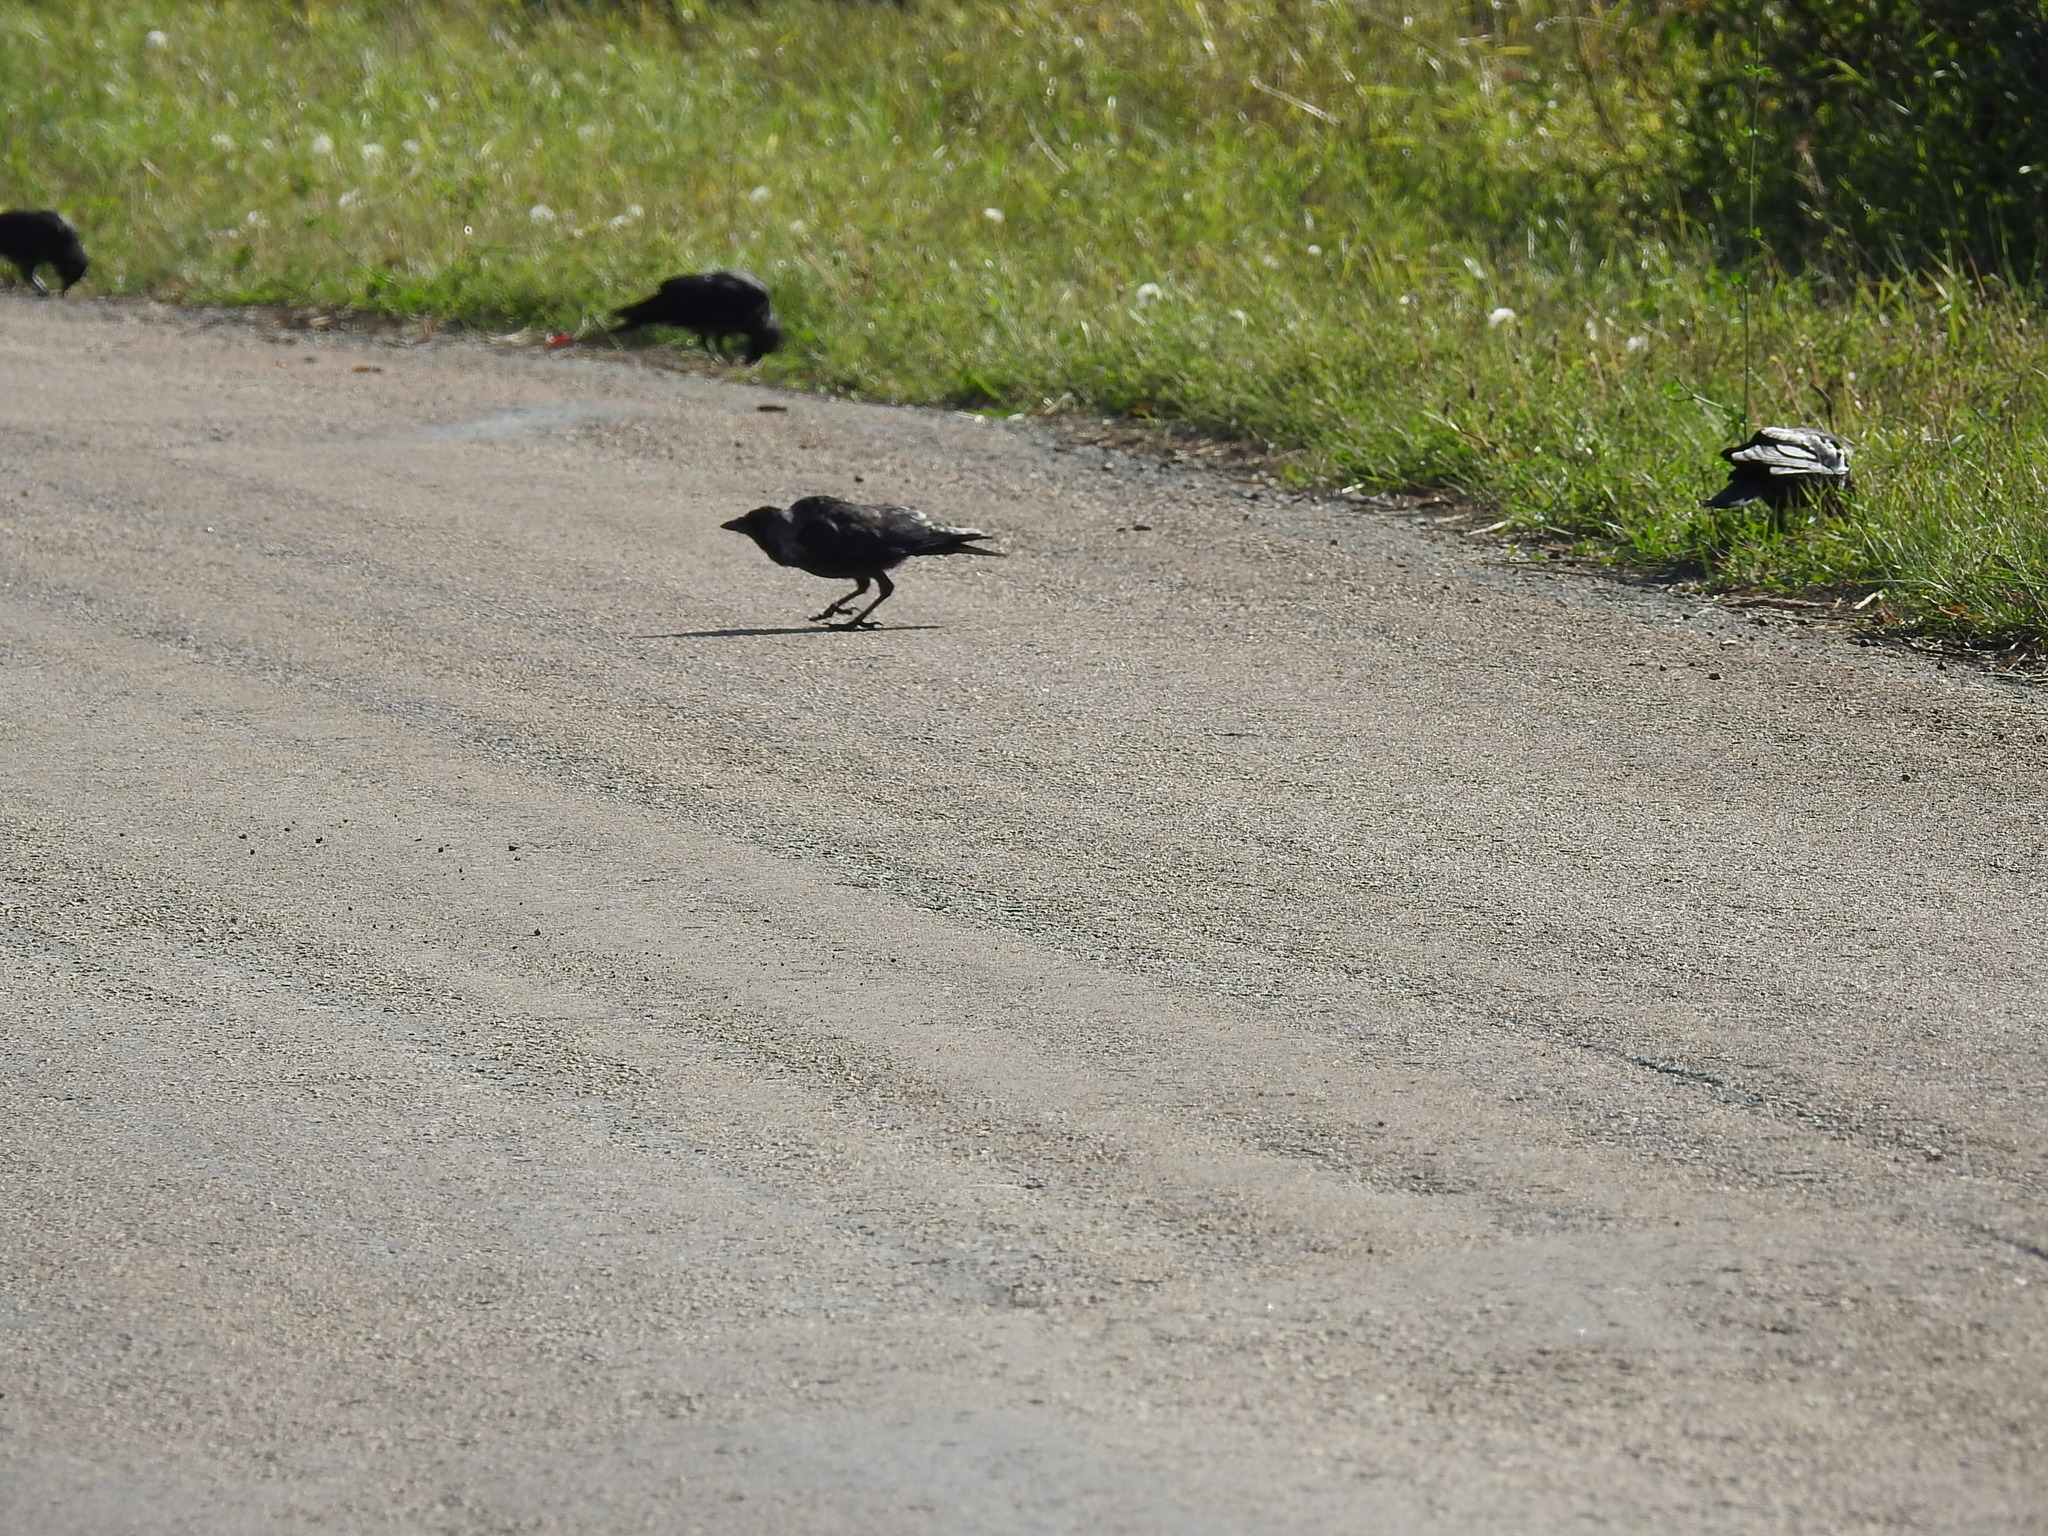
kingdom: Animalia
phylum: Chordata
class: Aves
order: Passeriformes
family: Corvidae
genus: Coloeus
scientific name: Coloeus monedula
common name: Western jackdaw
